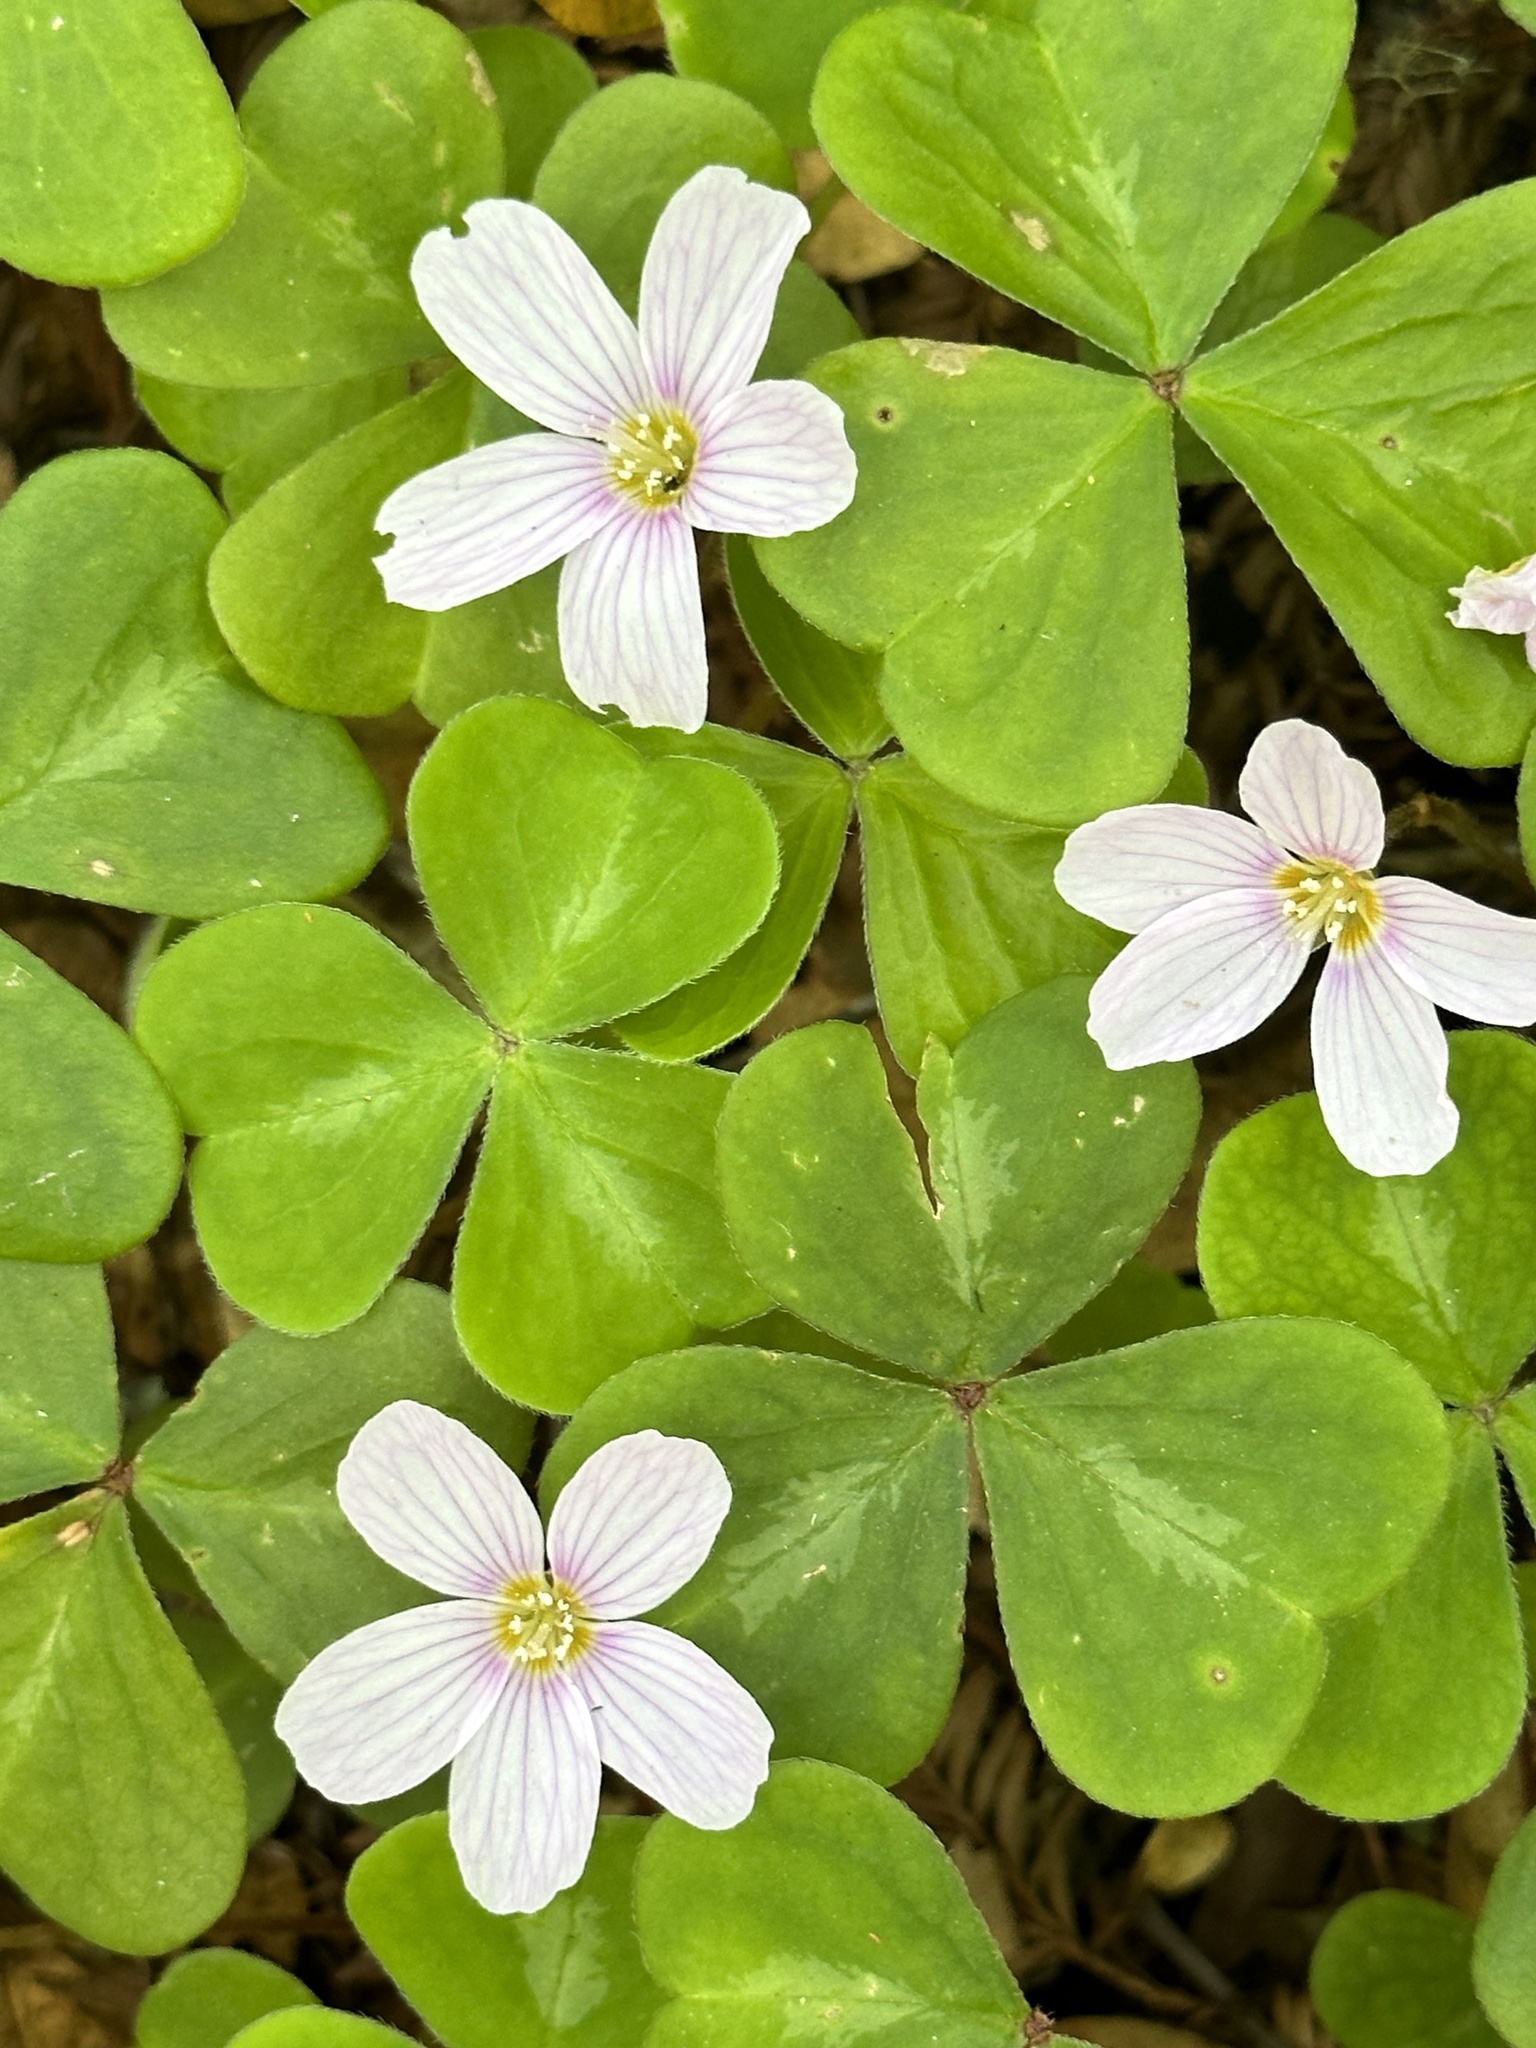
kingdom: Plantae
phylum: Tracheophyta
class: Magnoliopsida
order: Oxalidales
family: Oxalidaceae
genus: Oxalis
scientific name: Oxalis oregana
